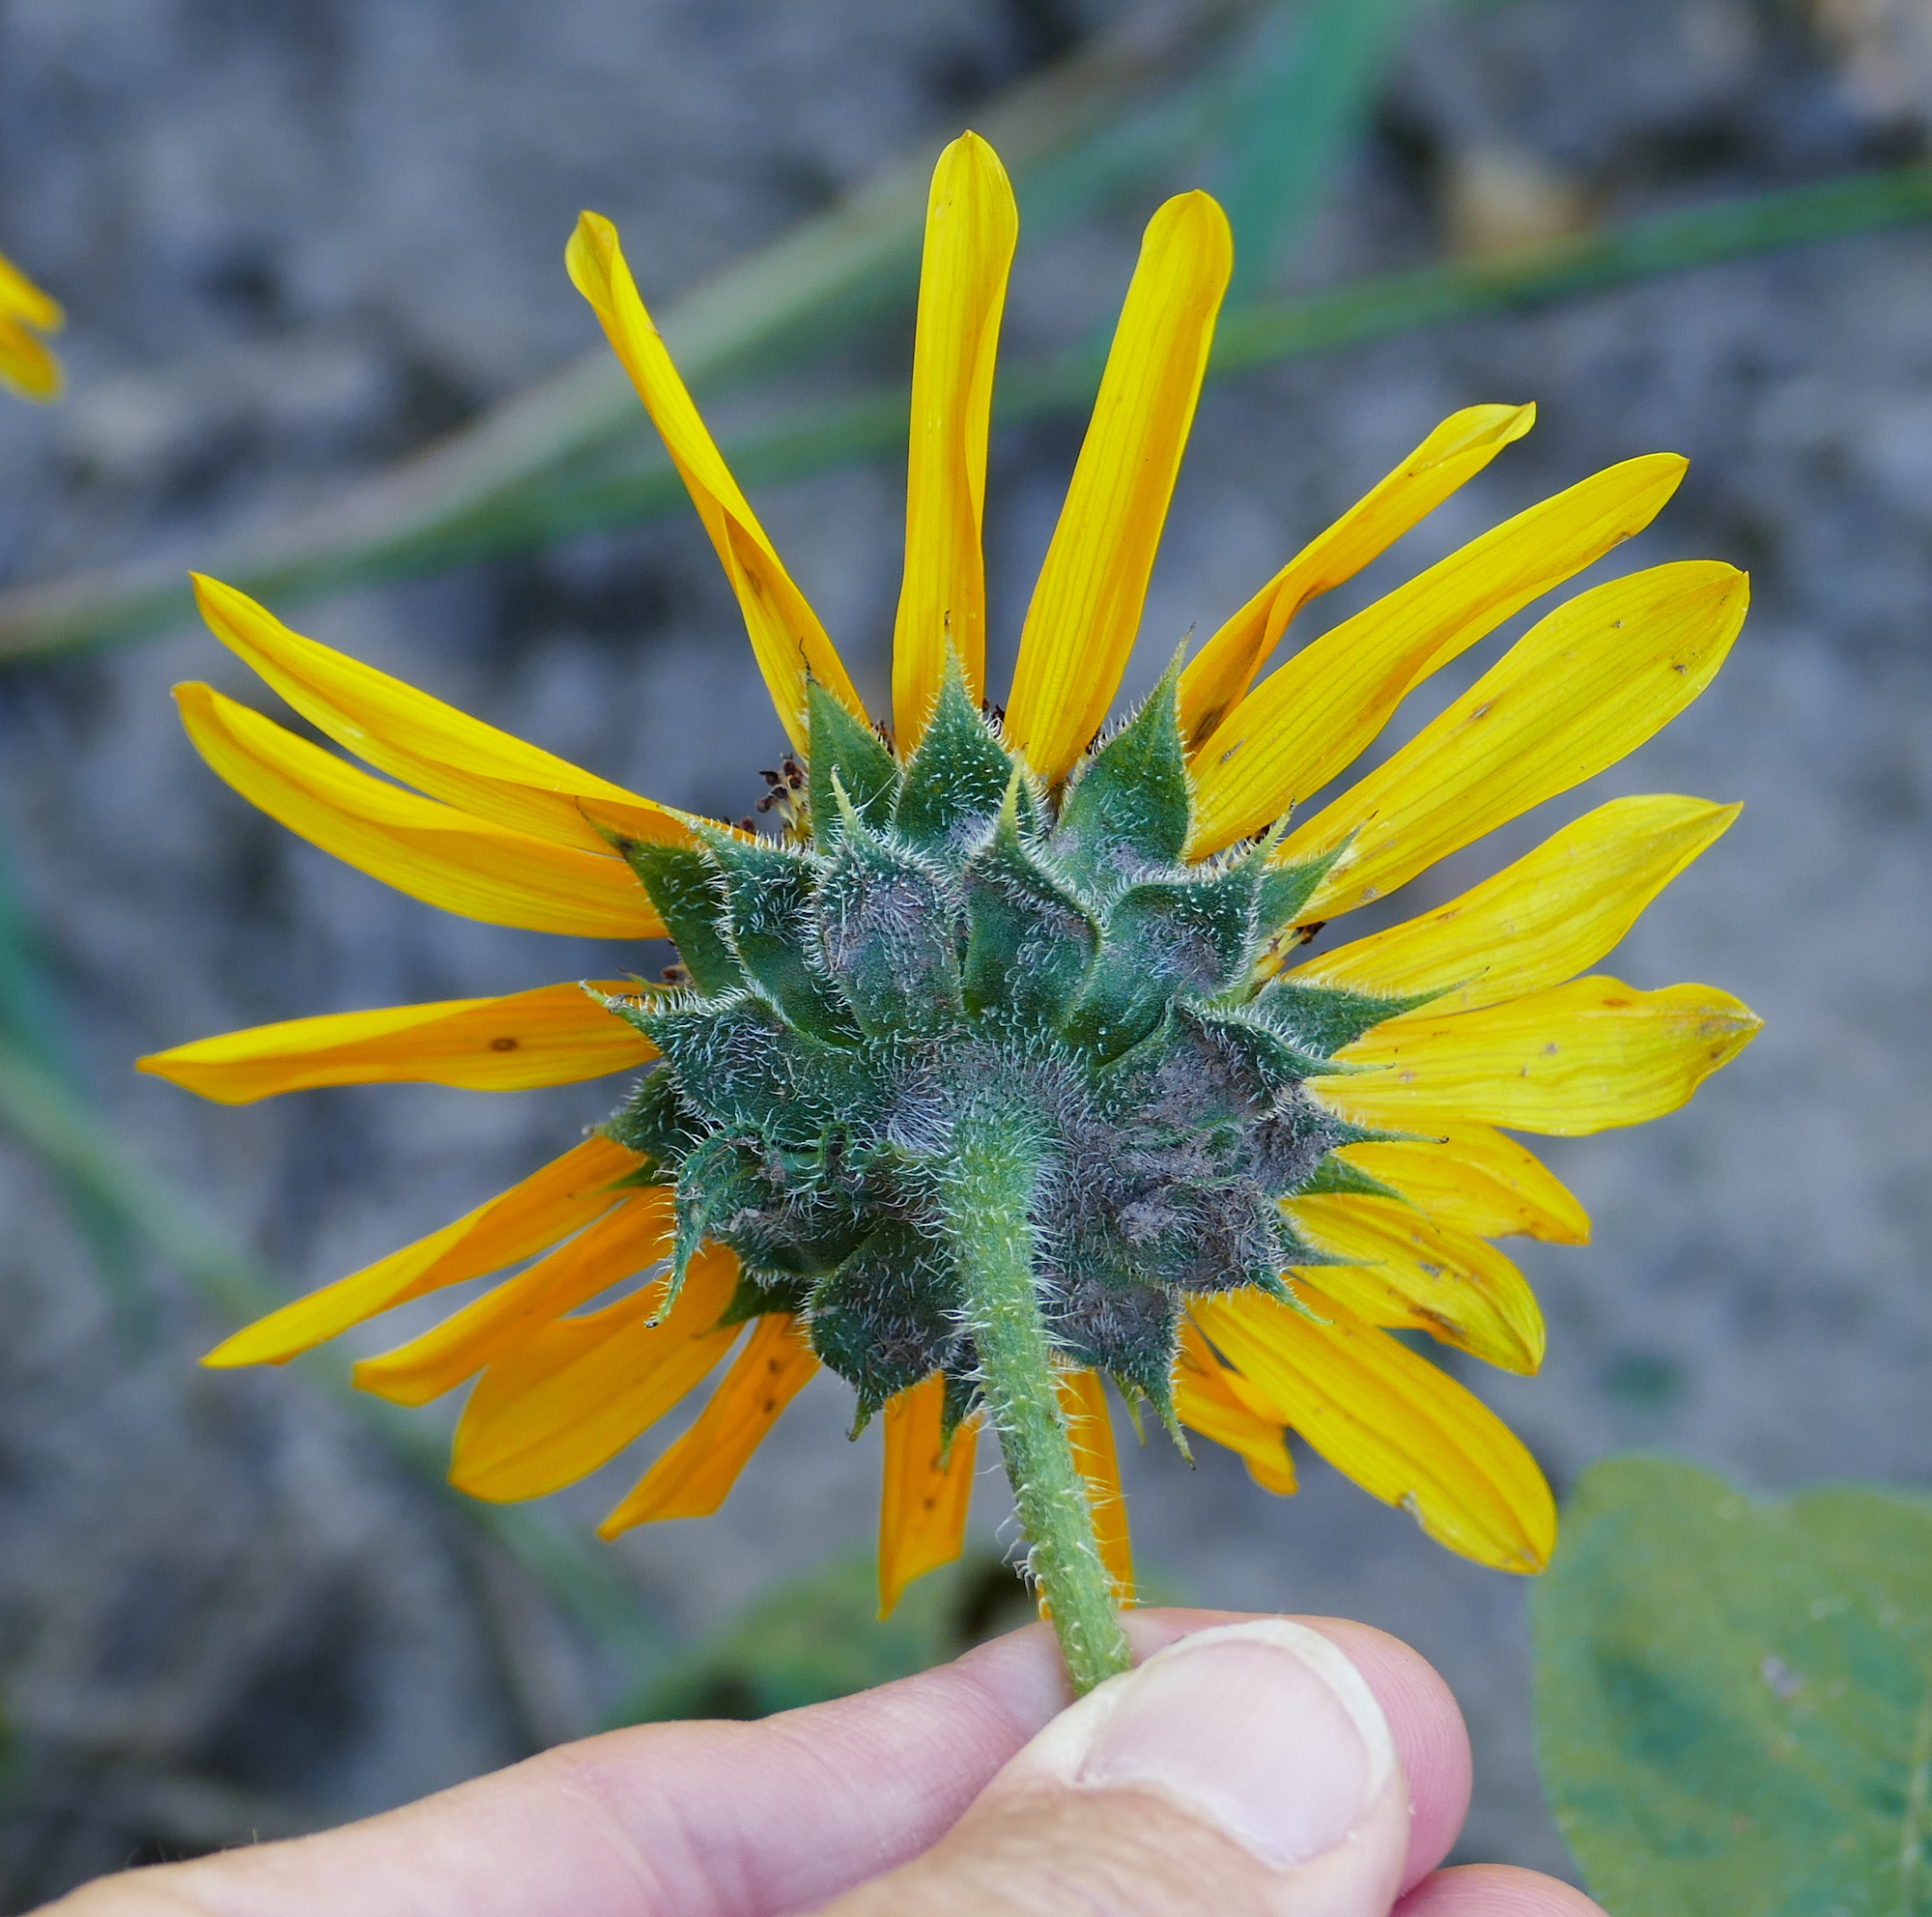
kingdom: Plantae
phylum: Tracheophyta
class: Magnoliopsida
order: Asterales
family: Asteraceae
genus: Helianthus
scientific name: Helianthus annuus
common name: Sunflower
